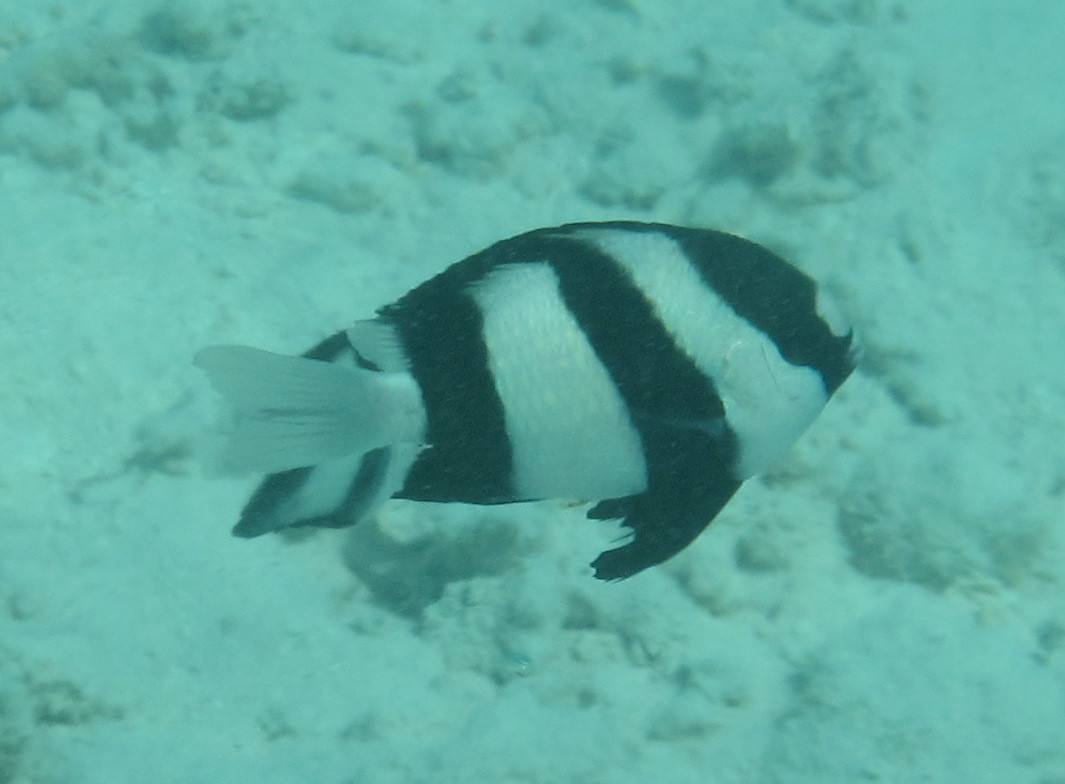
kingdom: Animalia
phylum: Chordata
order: Perciformes
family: Pomacentridae
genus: Dascyllus
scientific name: Dascyllus abudafur
